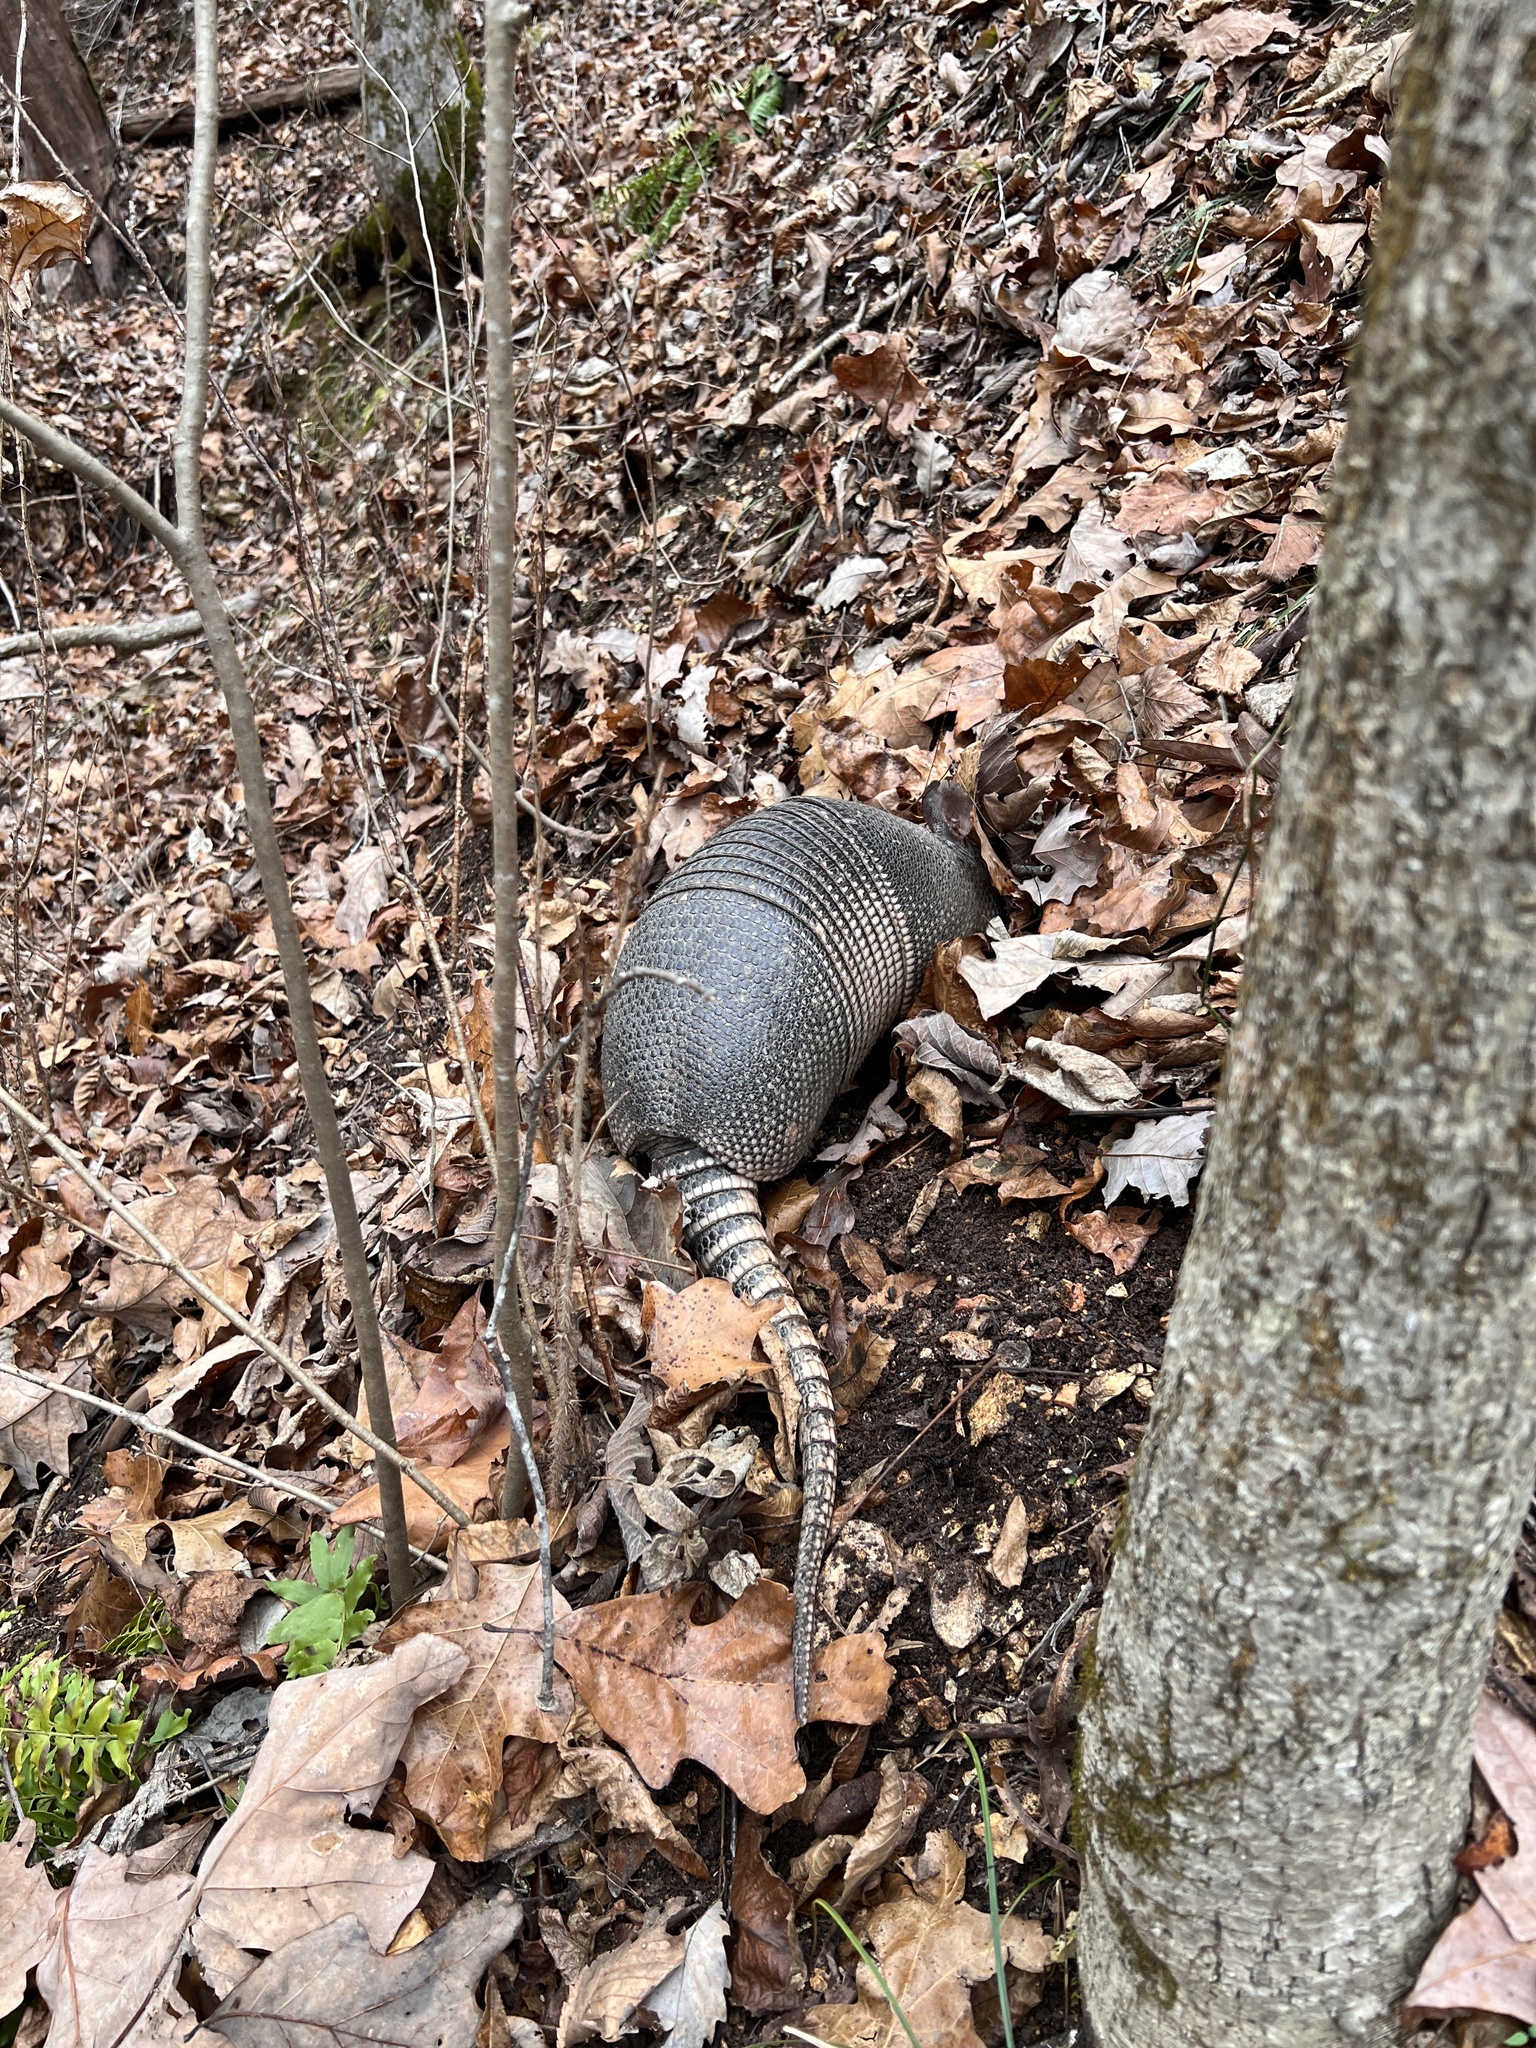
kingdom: Animalia
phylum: Chordata
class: Mammalia
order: Cingulata
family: Dasypodidae
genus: Dasypus
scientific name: Dasypus novemcinctus
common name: Nine-banded armadillo
